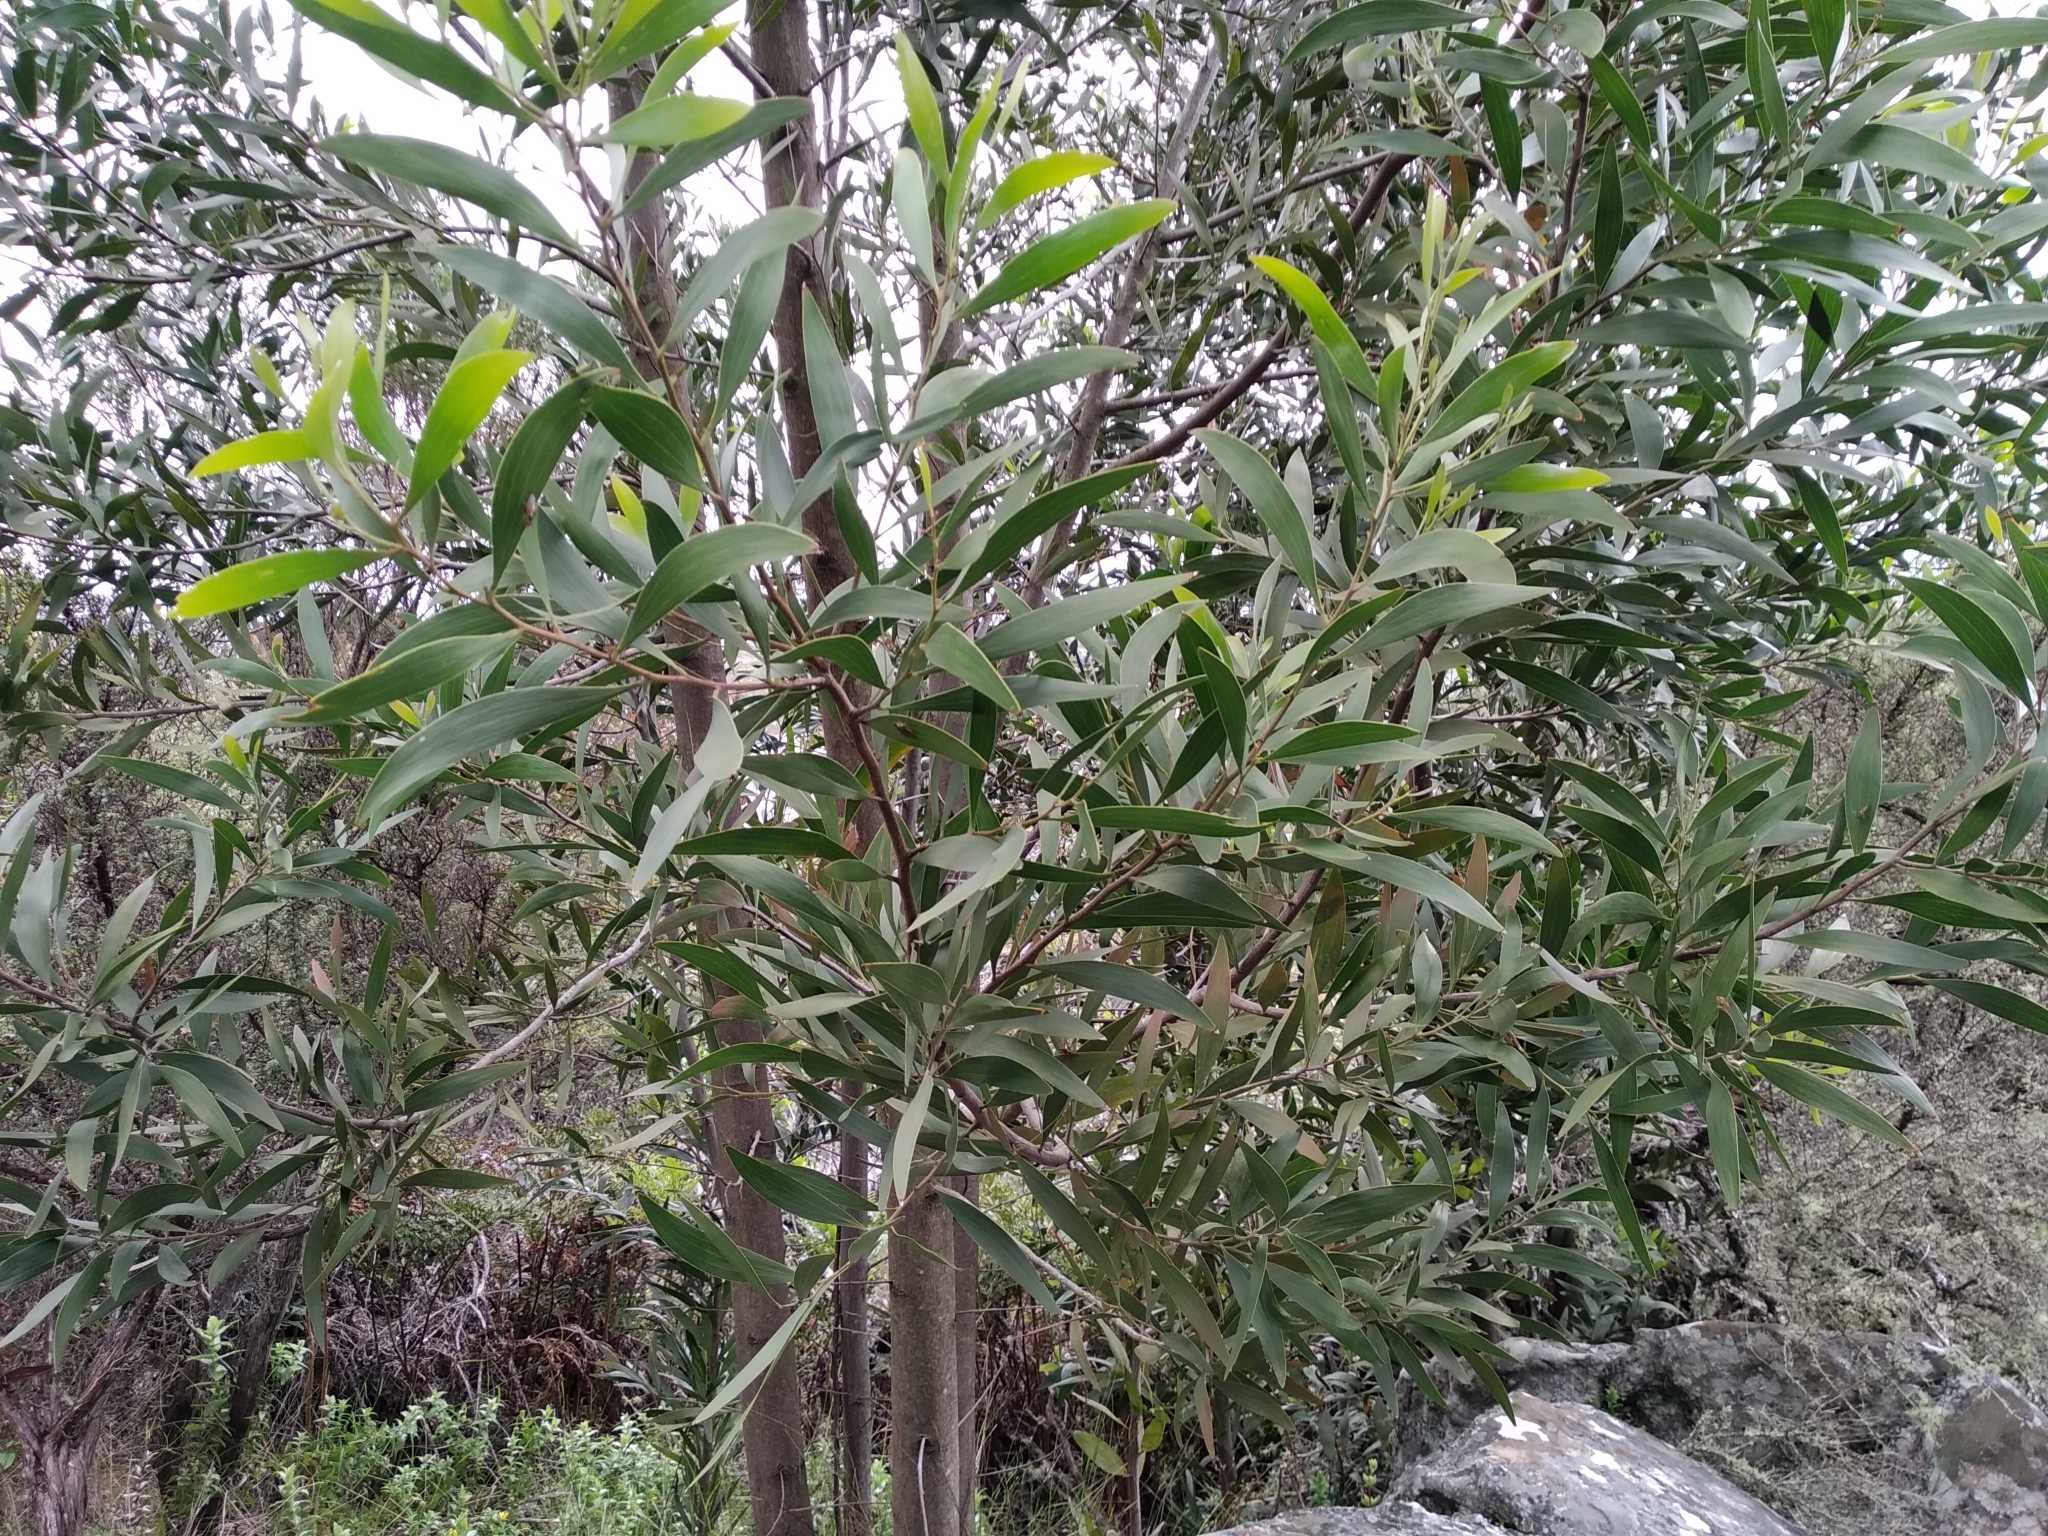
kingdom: Plantae
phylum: Tracheophyta
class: Magnoliopsida
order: Fabales
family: Fabaceae
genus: Acacia
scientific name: Acacia melanoxylon
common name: Blackwood
